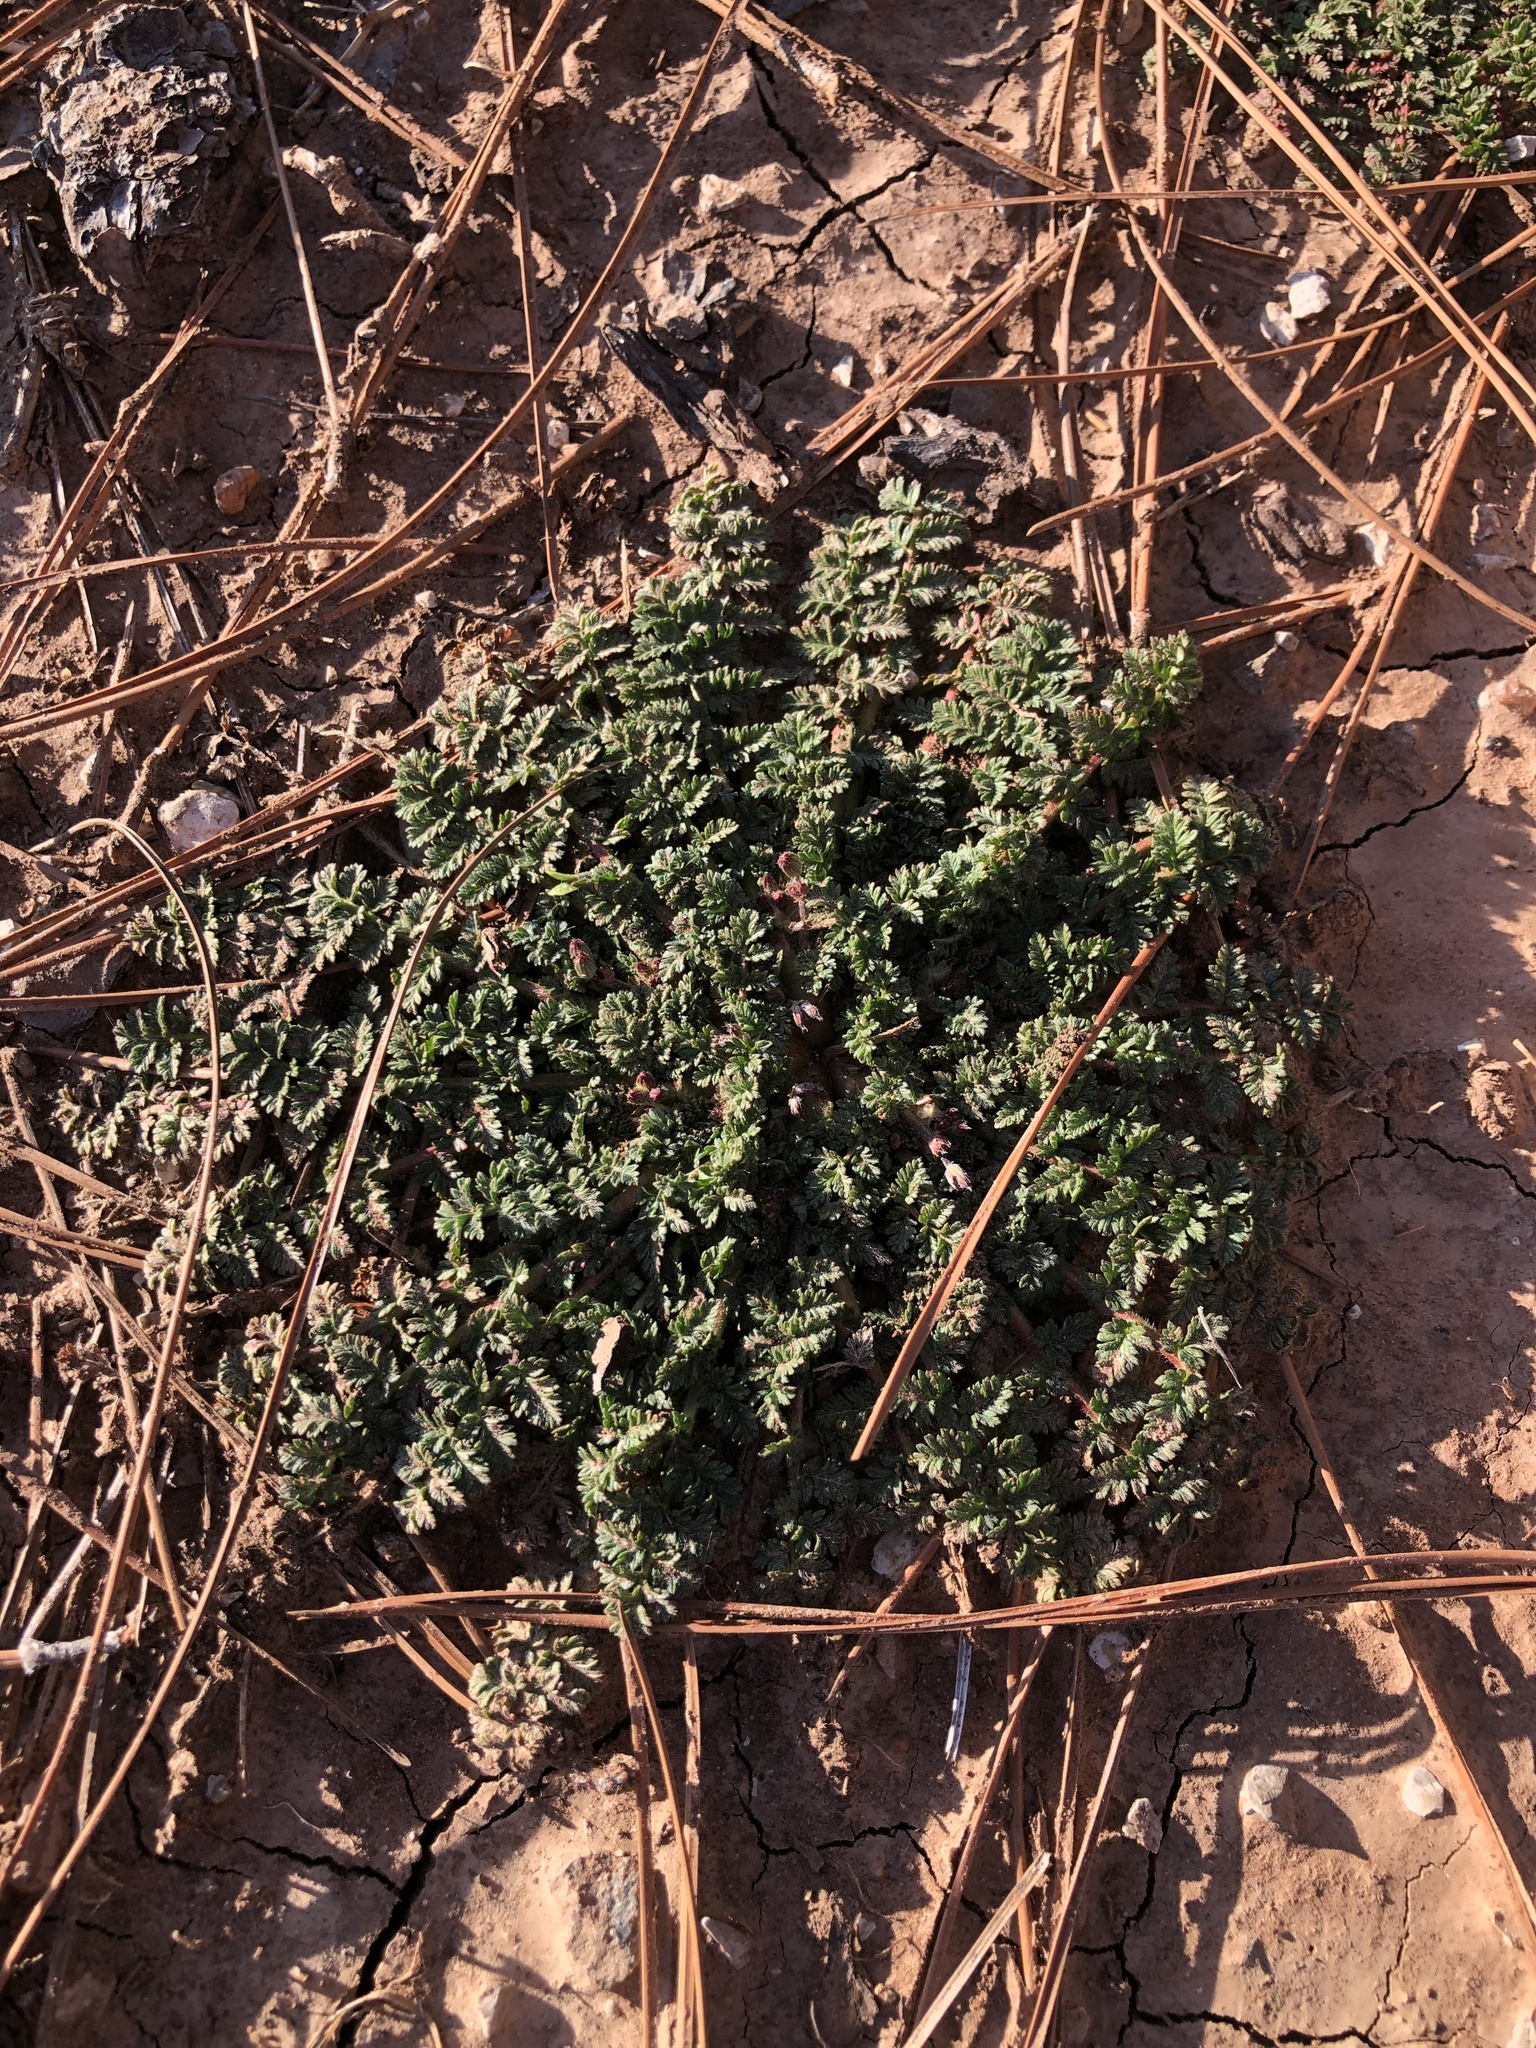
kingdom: Plantae
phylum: Tracheophyta
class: Magnoliopsida
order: Geraniales
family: Geraniaceae
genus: Erodium
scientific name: Erodium cicutarium
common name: Common stork's-bill
